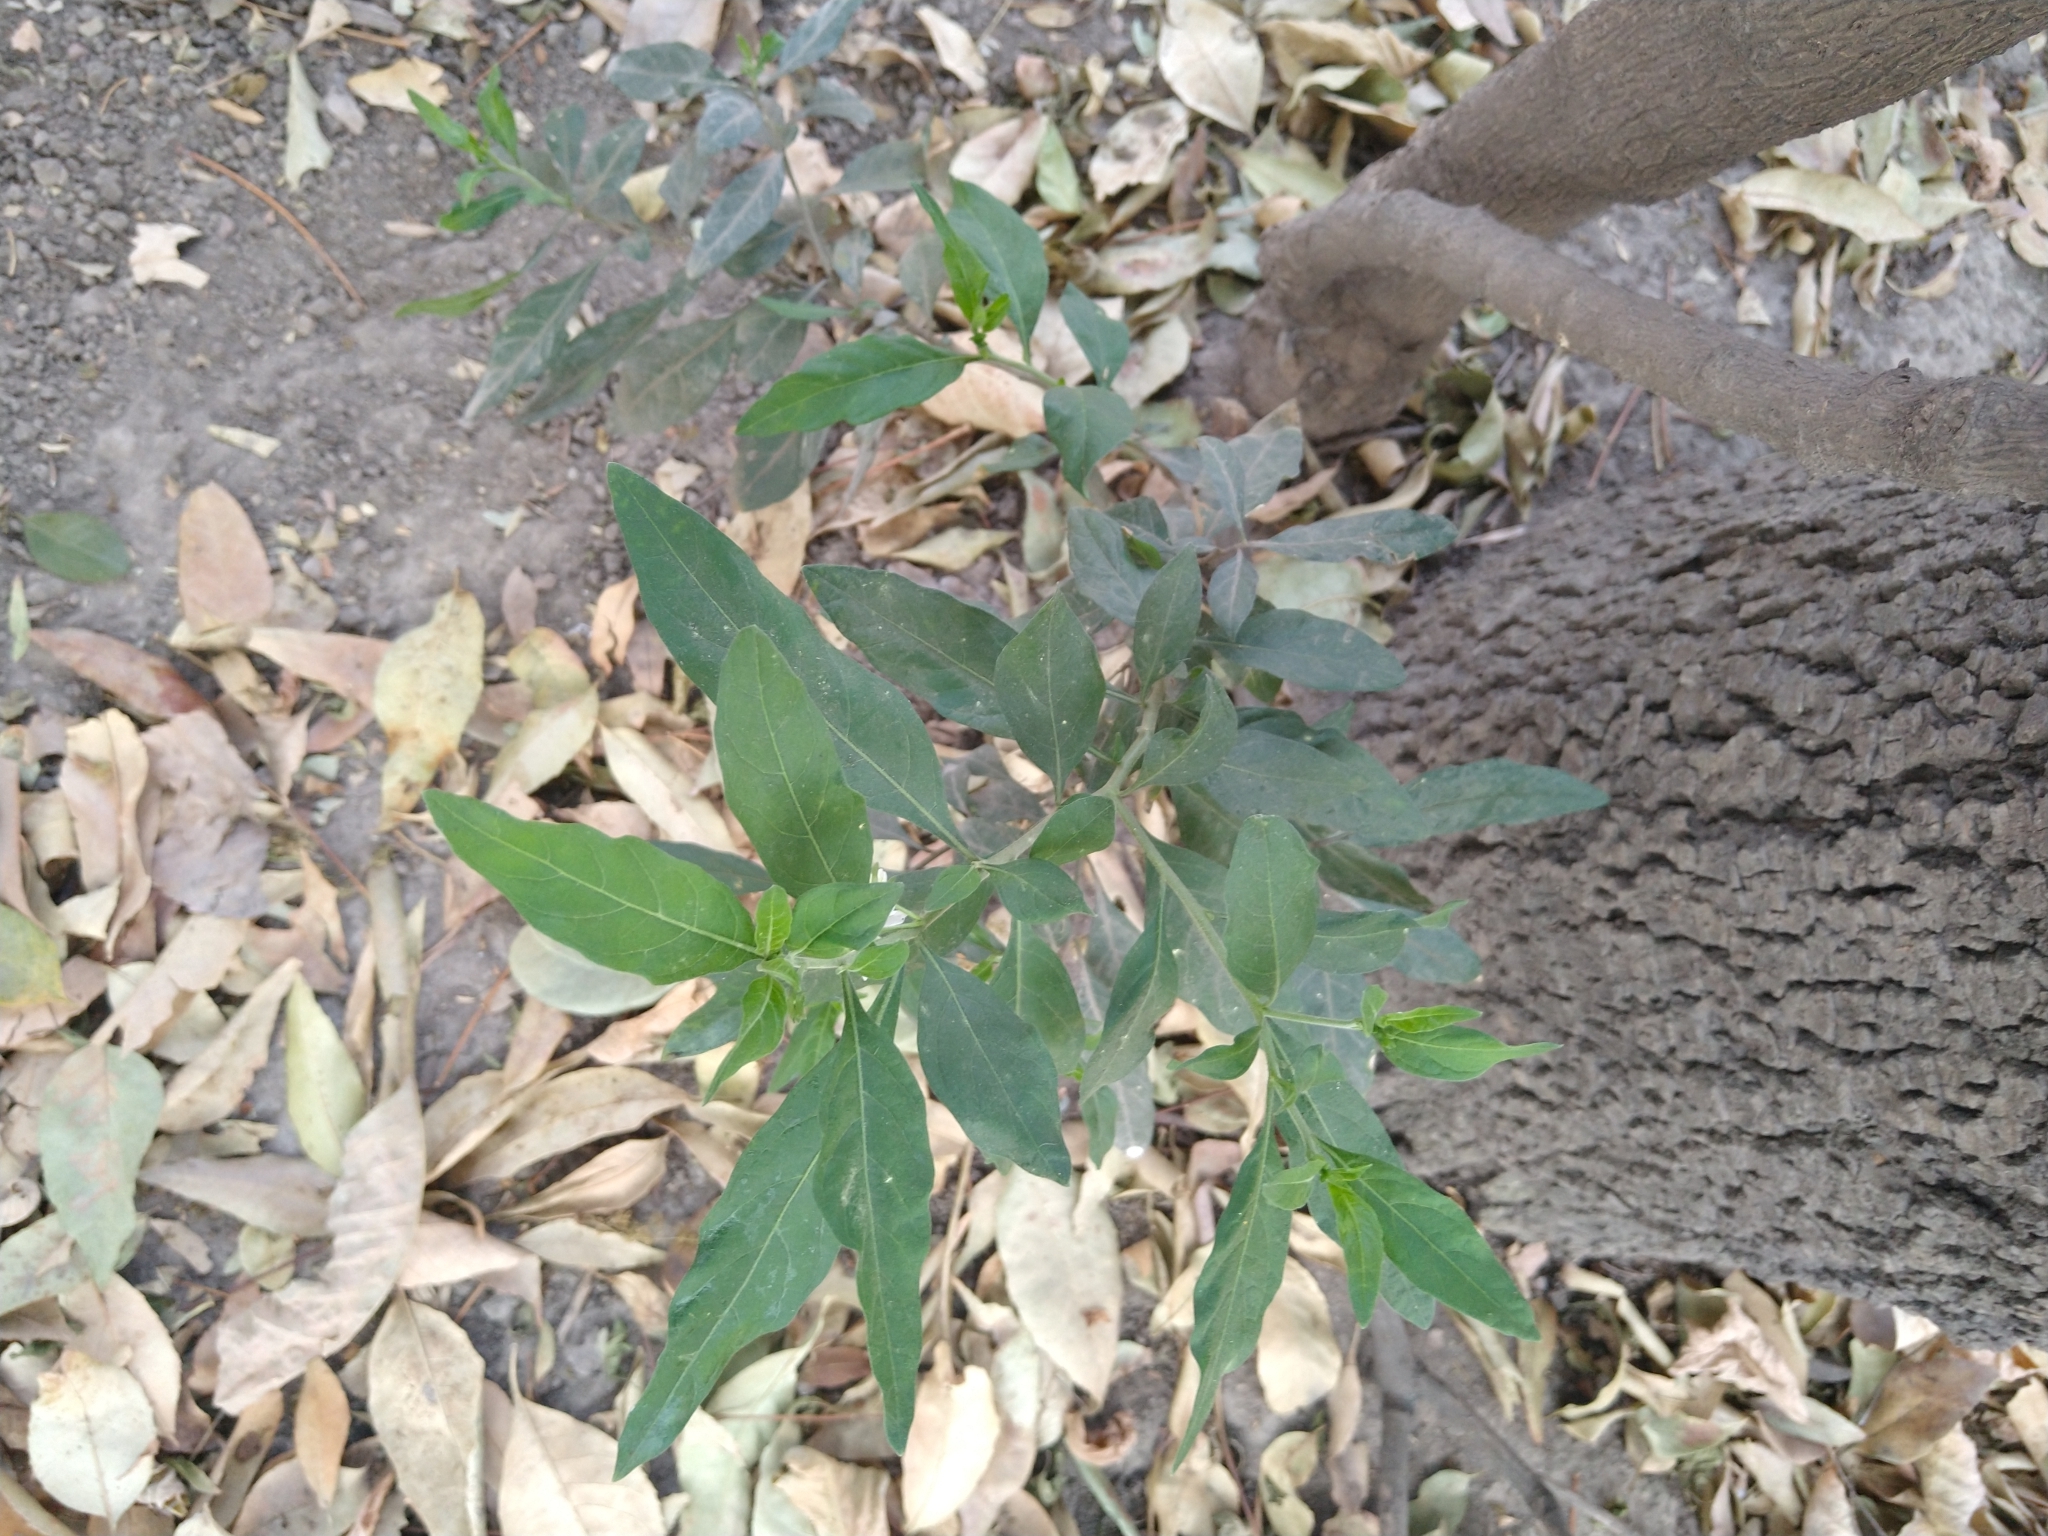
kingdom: Plantae
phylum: Tracheophyta
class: Magnoliopsida
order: Solanales
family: Solanaceae
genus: Solanum
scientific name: Solanum pseudocapsicum
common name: Jerusalem cherry
